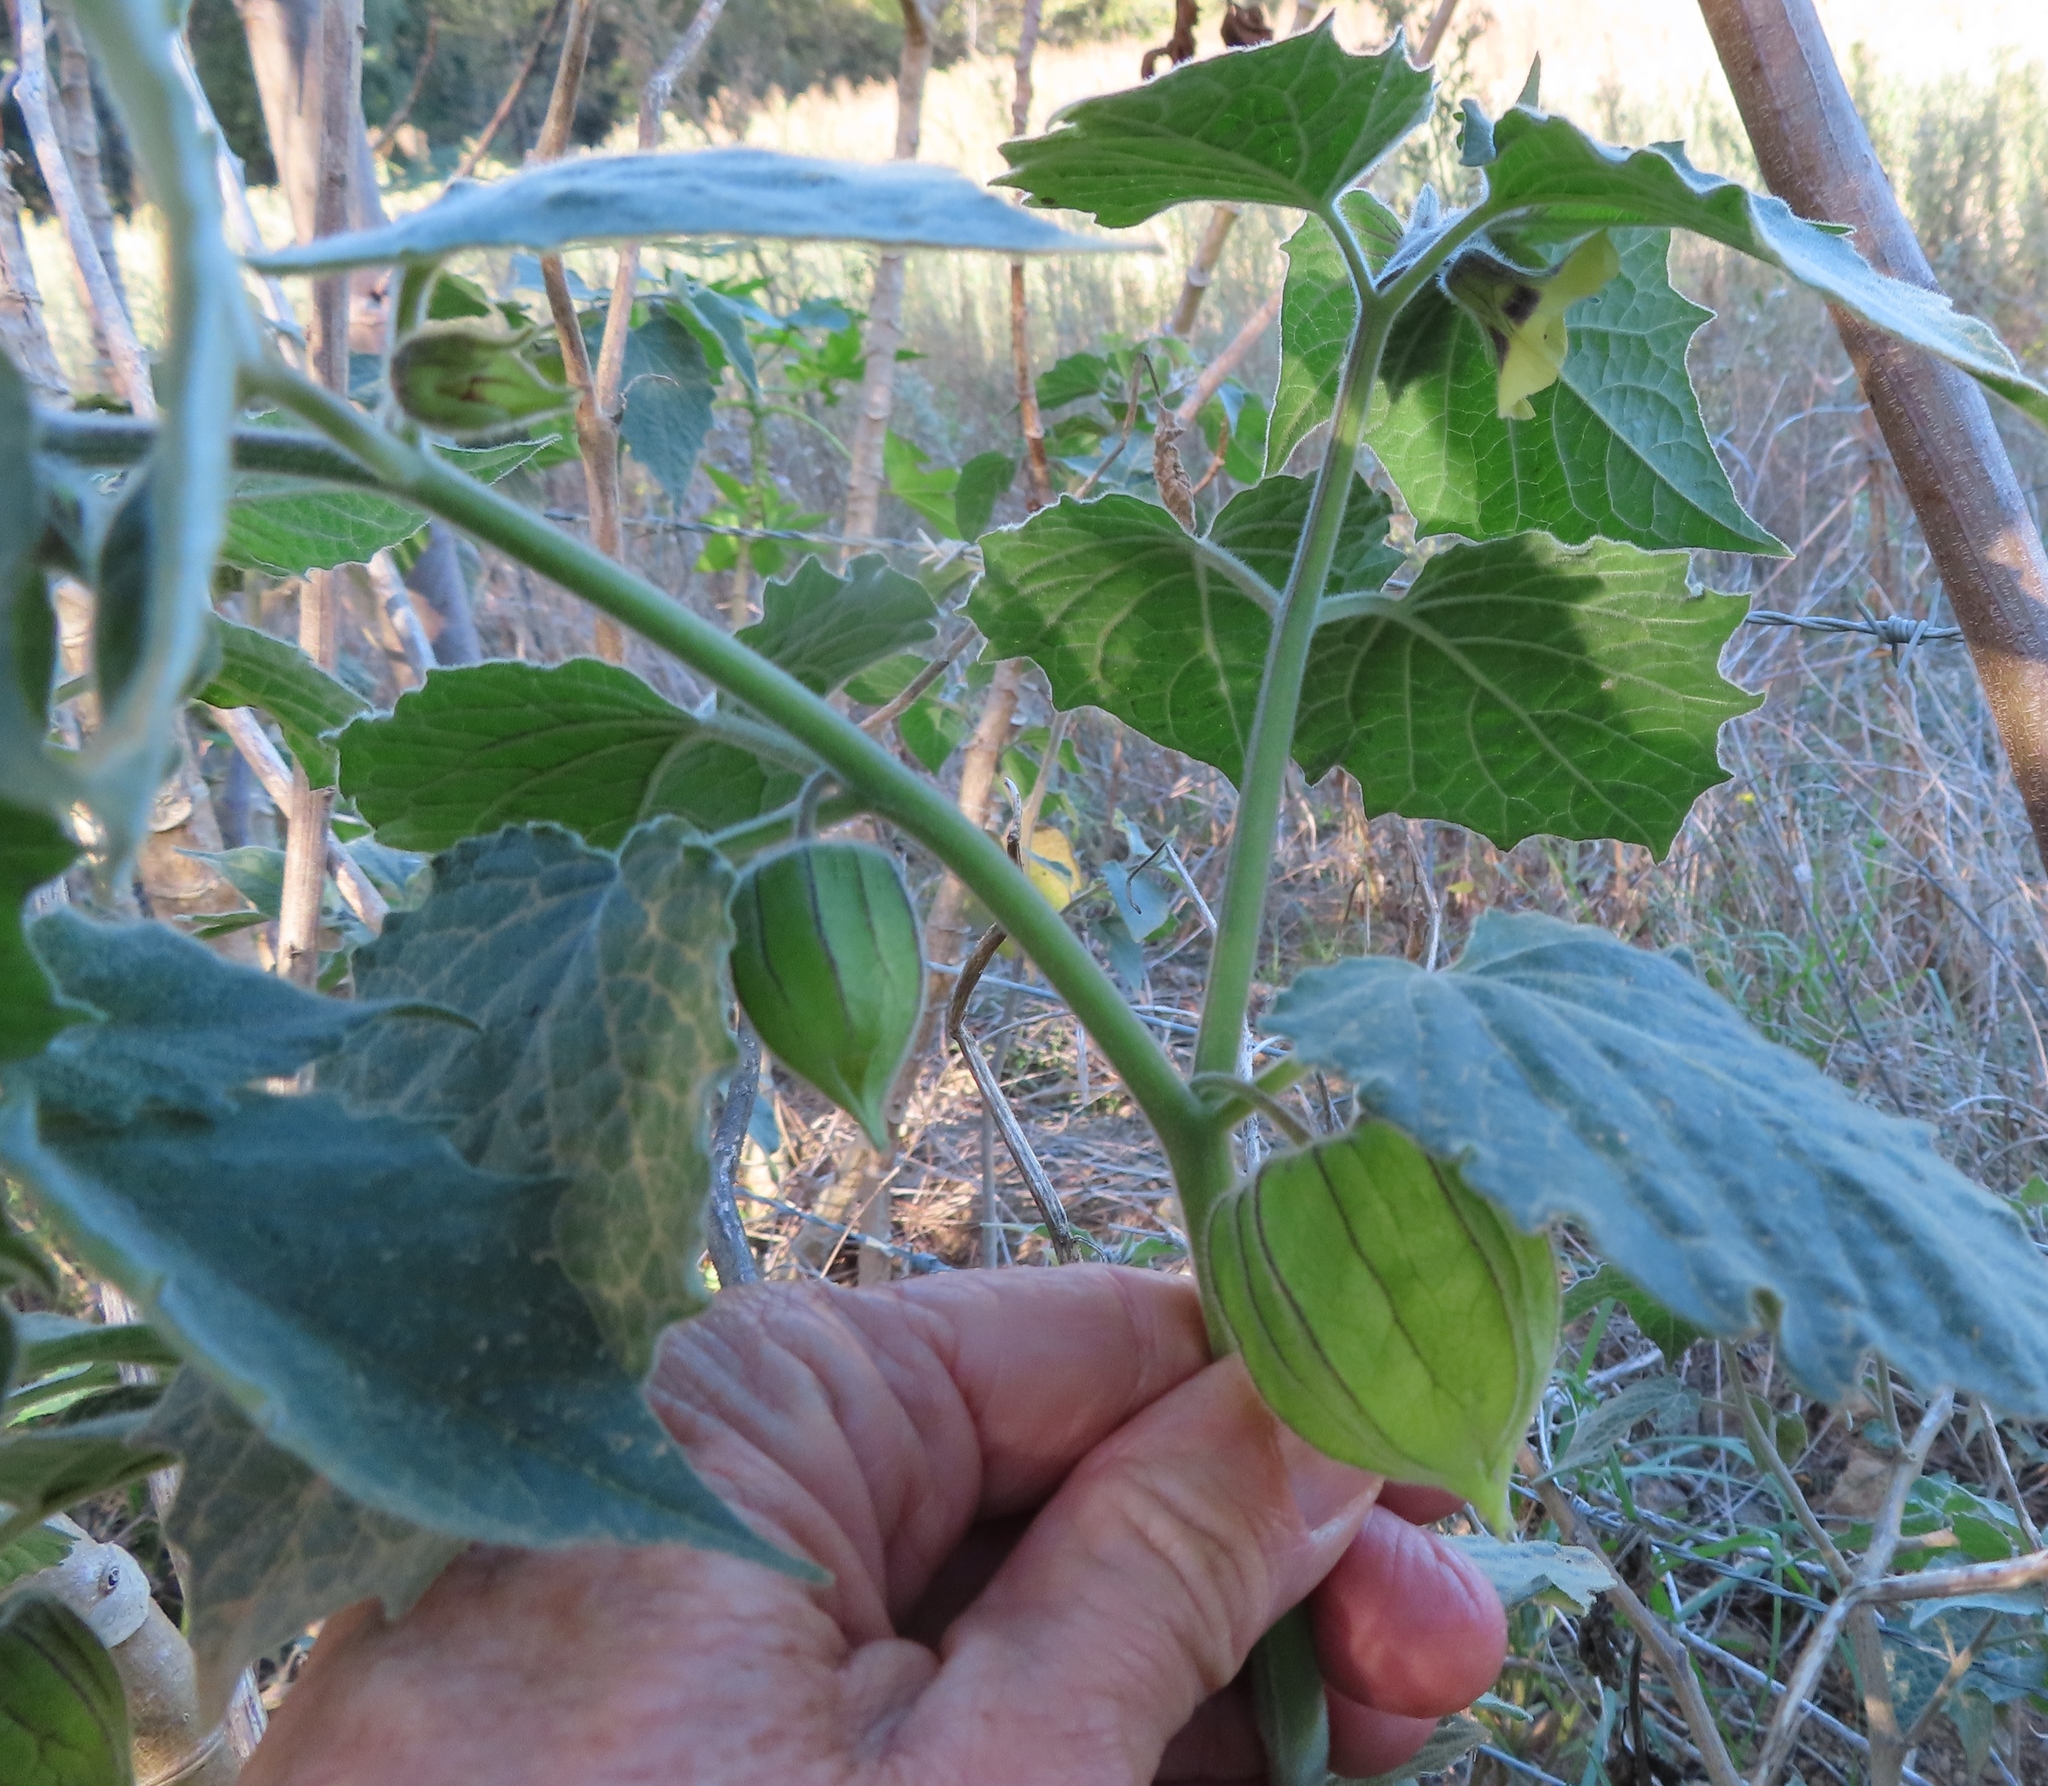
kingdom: Plantae
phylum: Tracheophyta
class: Magnoliopsida
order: Solanales
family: Solanaceae
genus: Physalis
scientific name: Physalis peruviana
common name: Cape-gooseberry
